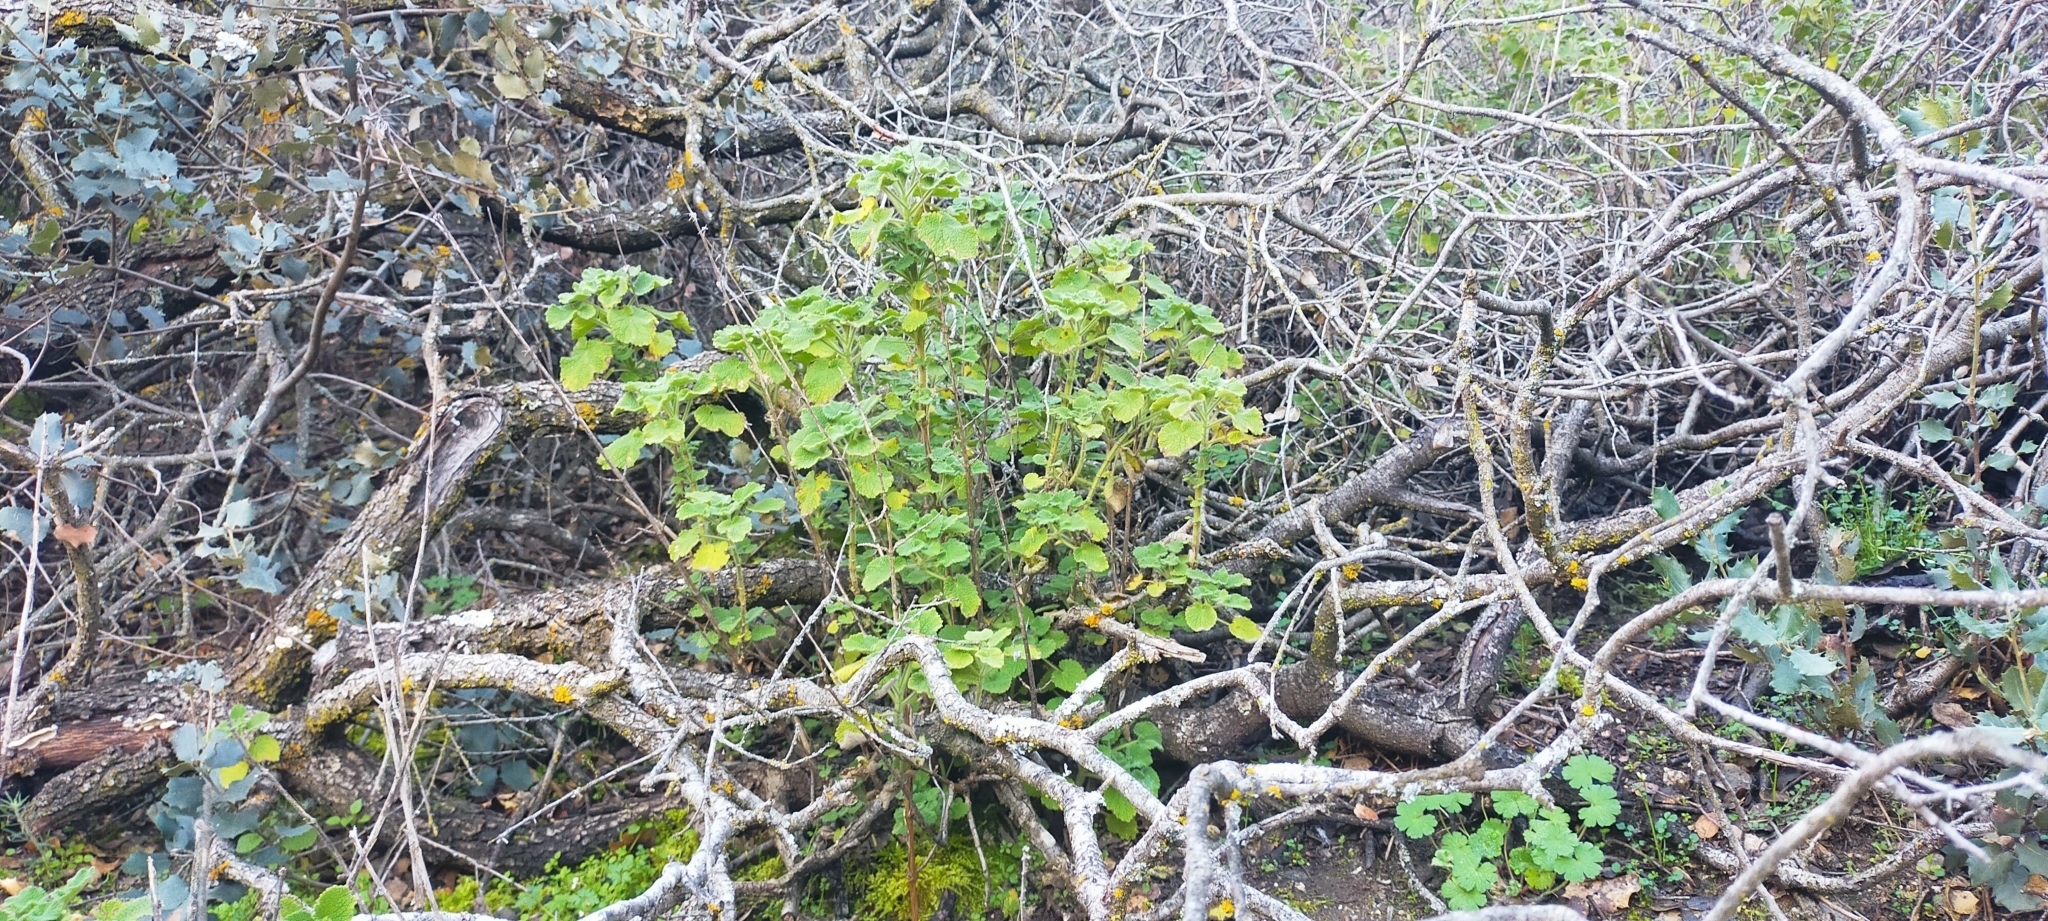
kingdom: Plantae
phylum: Tracheophyta
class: Magnoliopsida
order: Lamiales
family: Lamiaceae
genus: Pseudodictamnus
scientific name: Pseudodictamnus hirsutus
